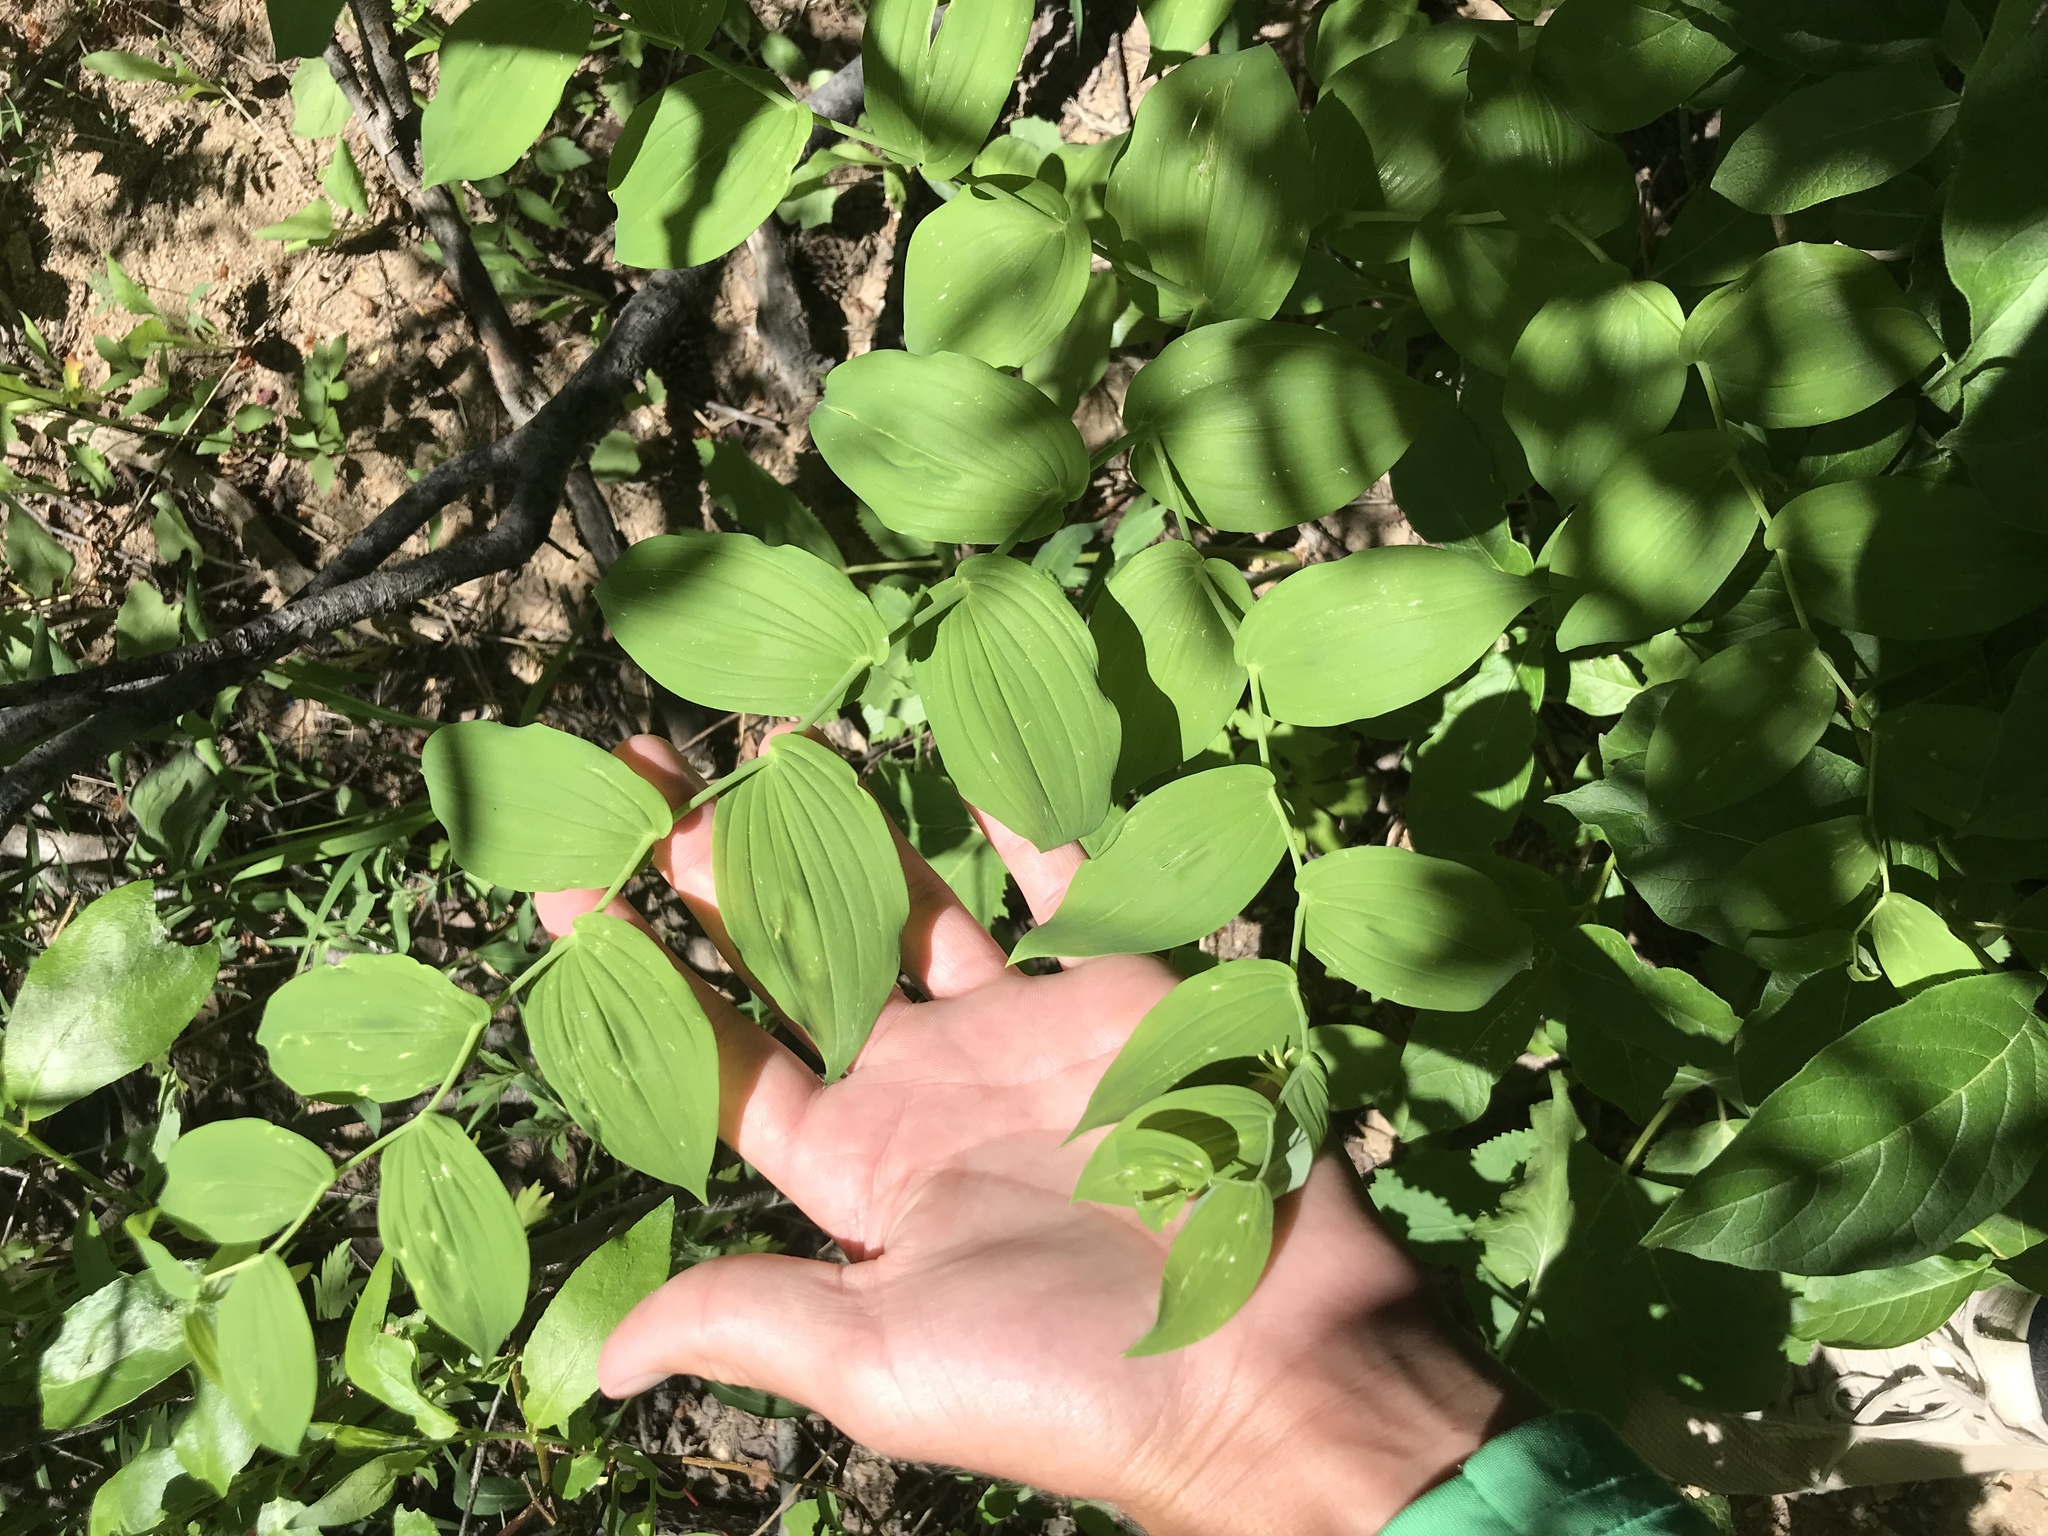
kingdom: Plantae
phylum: Tracheophyta
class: Liliopsida
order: Liliales
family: Liliaceae
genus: Streptopus
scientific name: Streptopus amplexifolius
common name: Clasp twisted stalk
